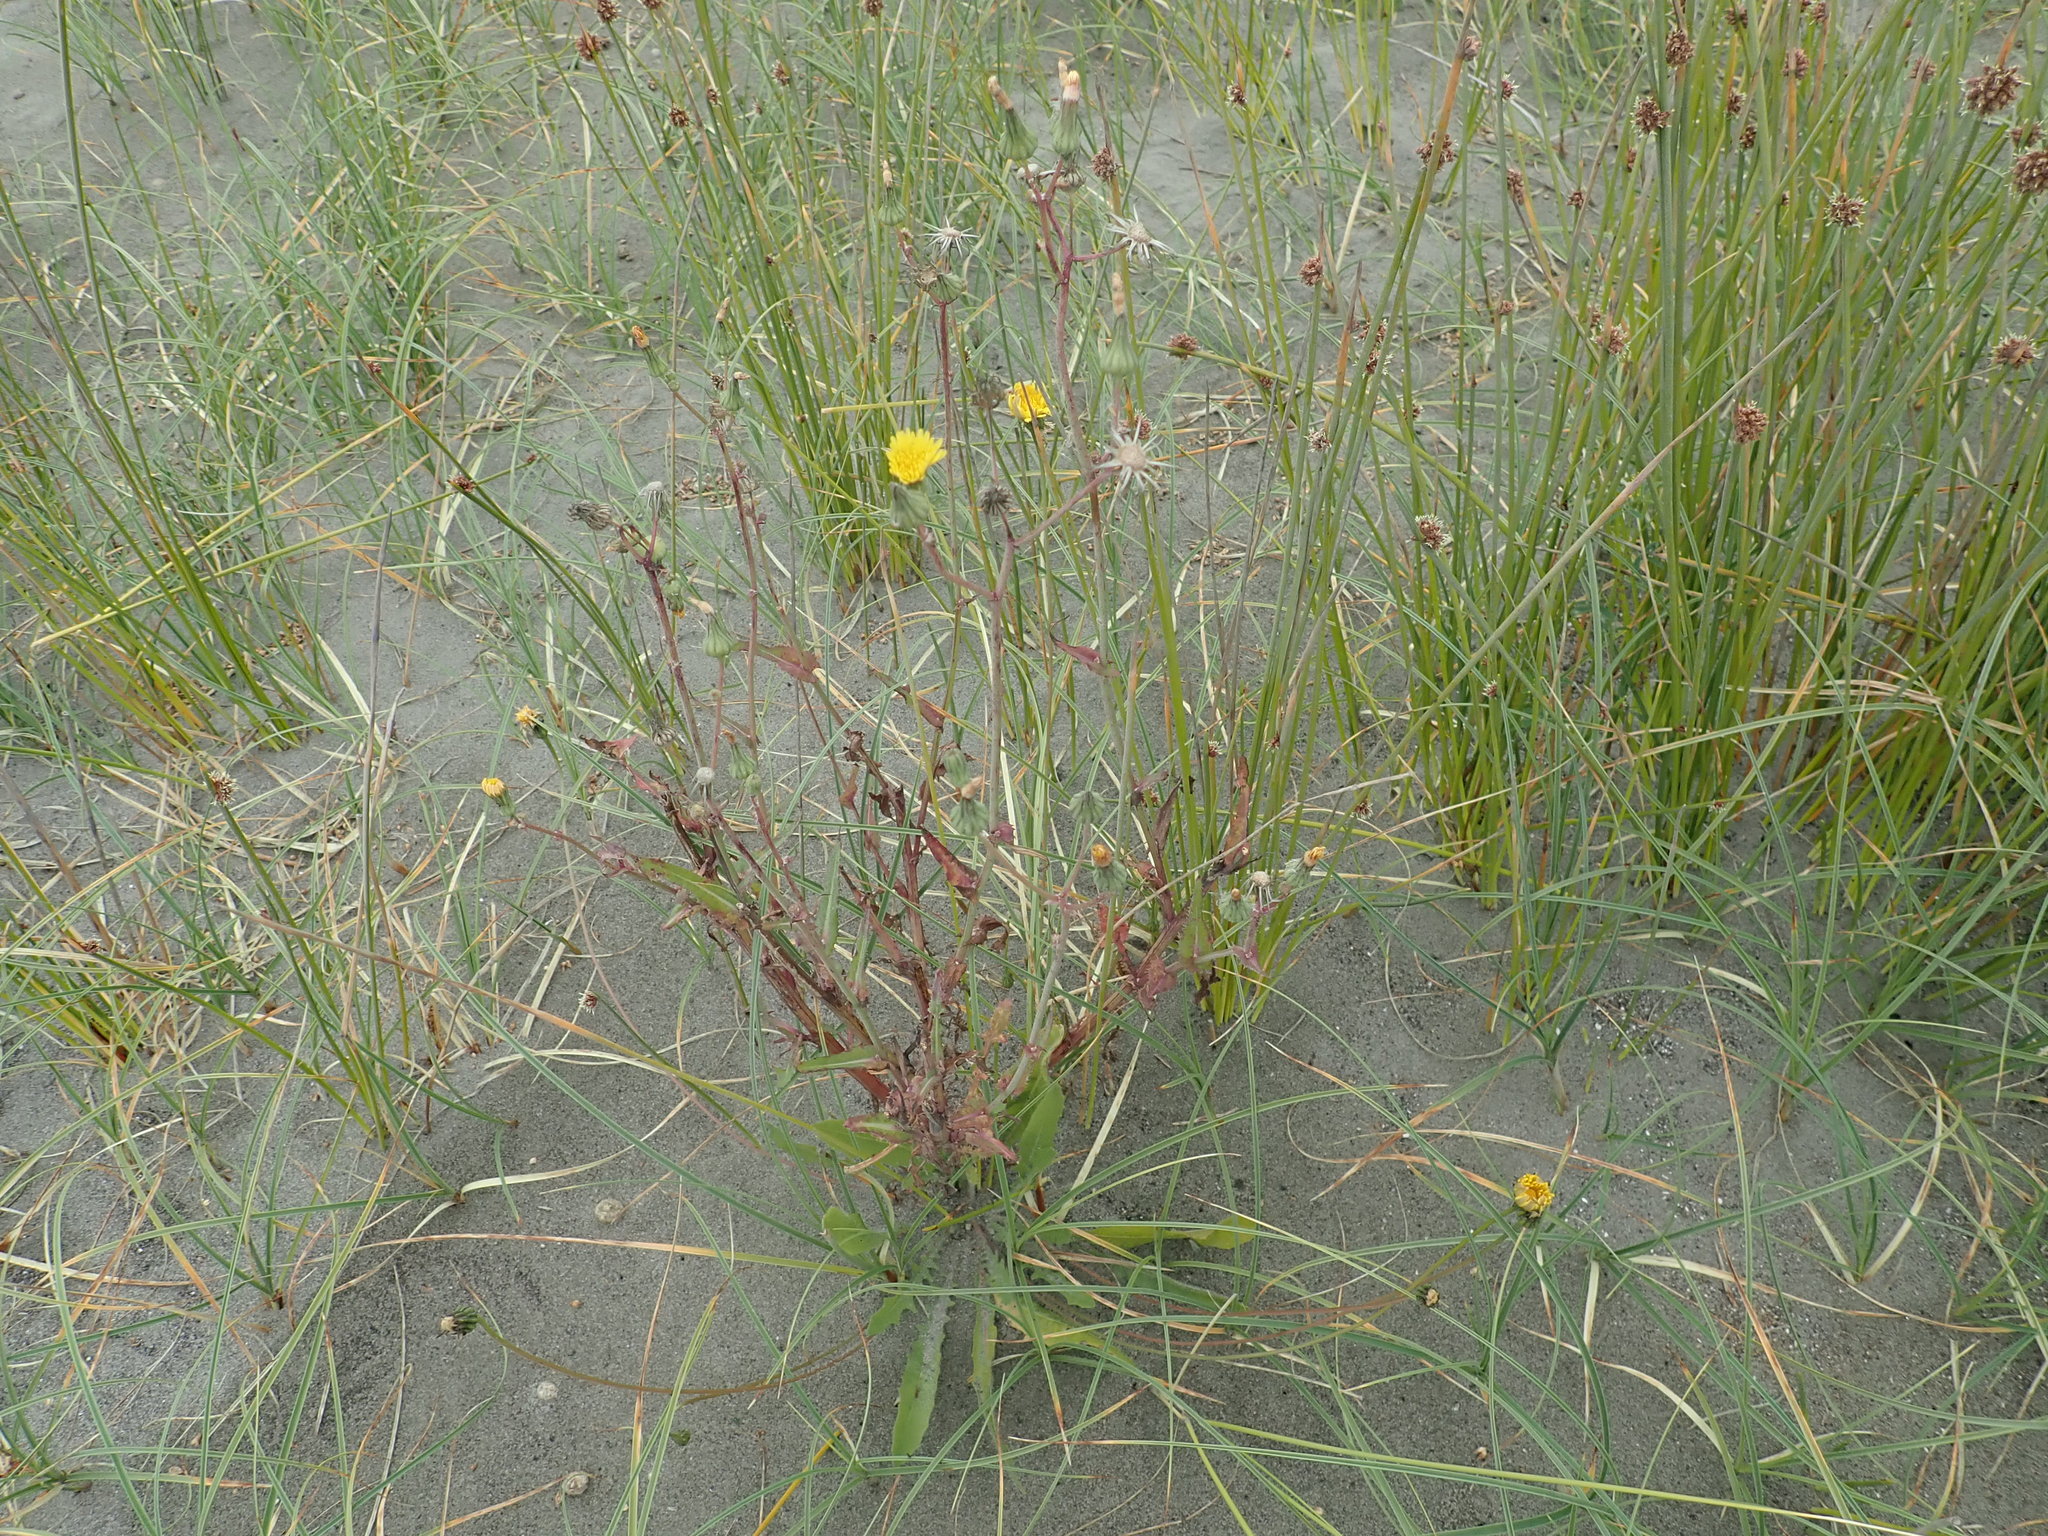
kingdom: Plantae
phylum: Tracheophyta
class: Magnoliopsida
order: Asterales
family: Asteraceae
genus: Sonchus
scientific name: Sonchus oleraceus
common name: Common sowthistle
